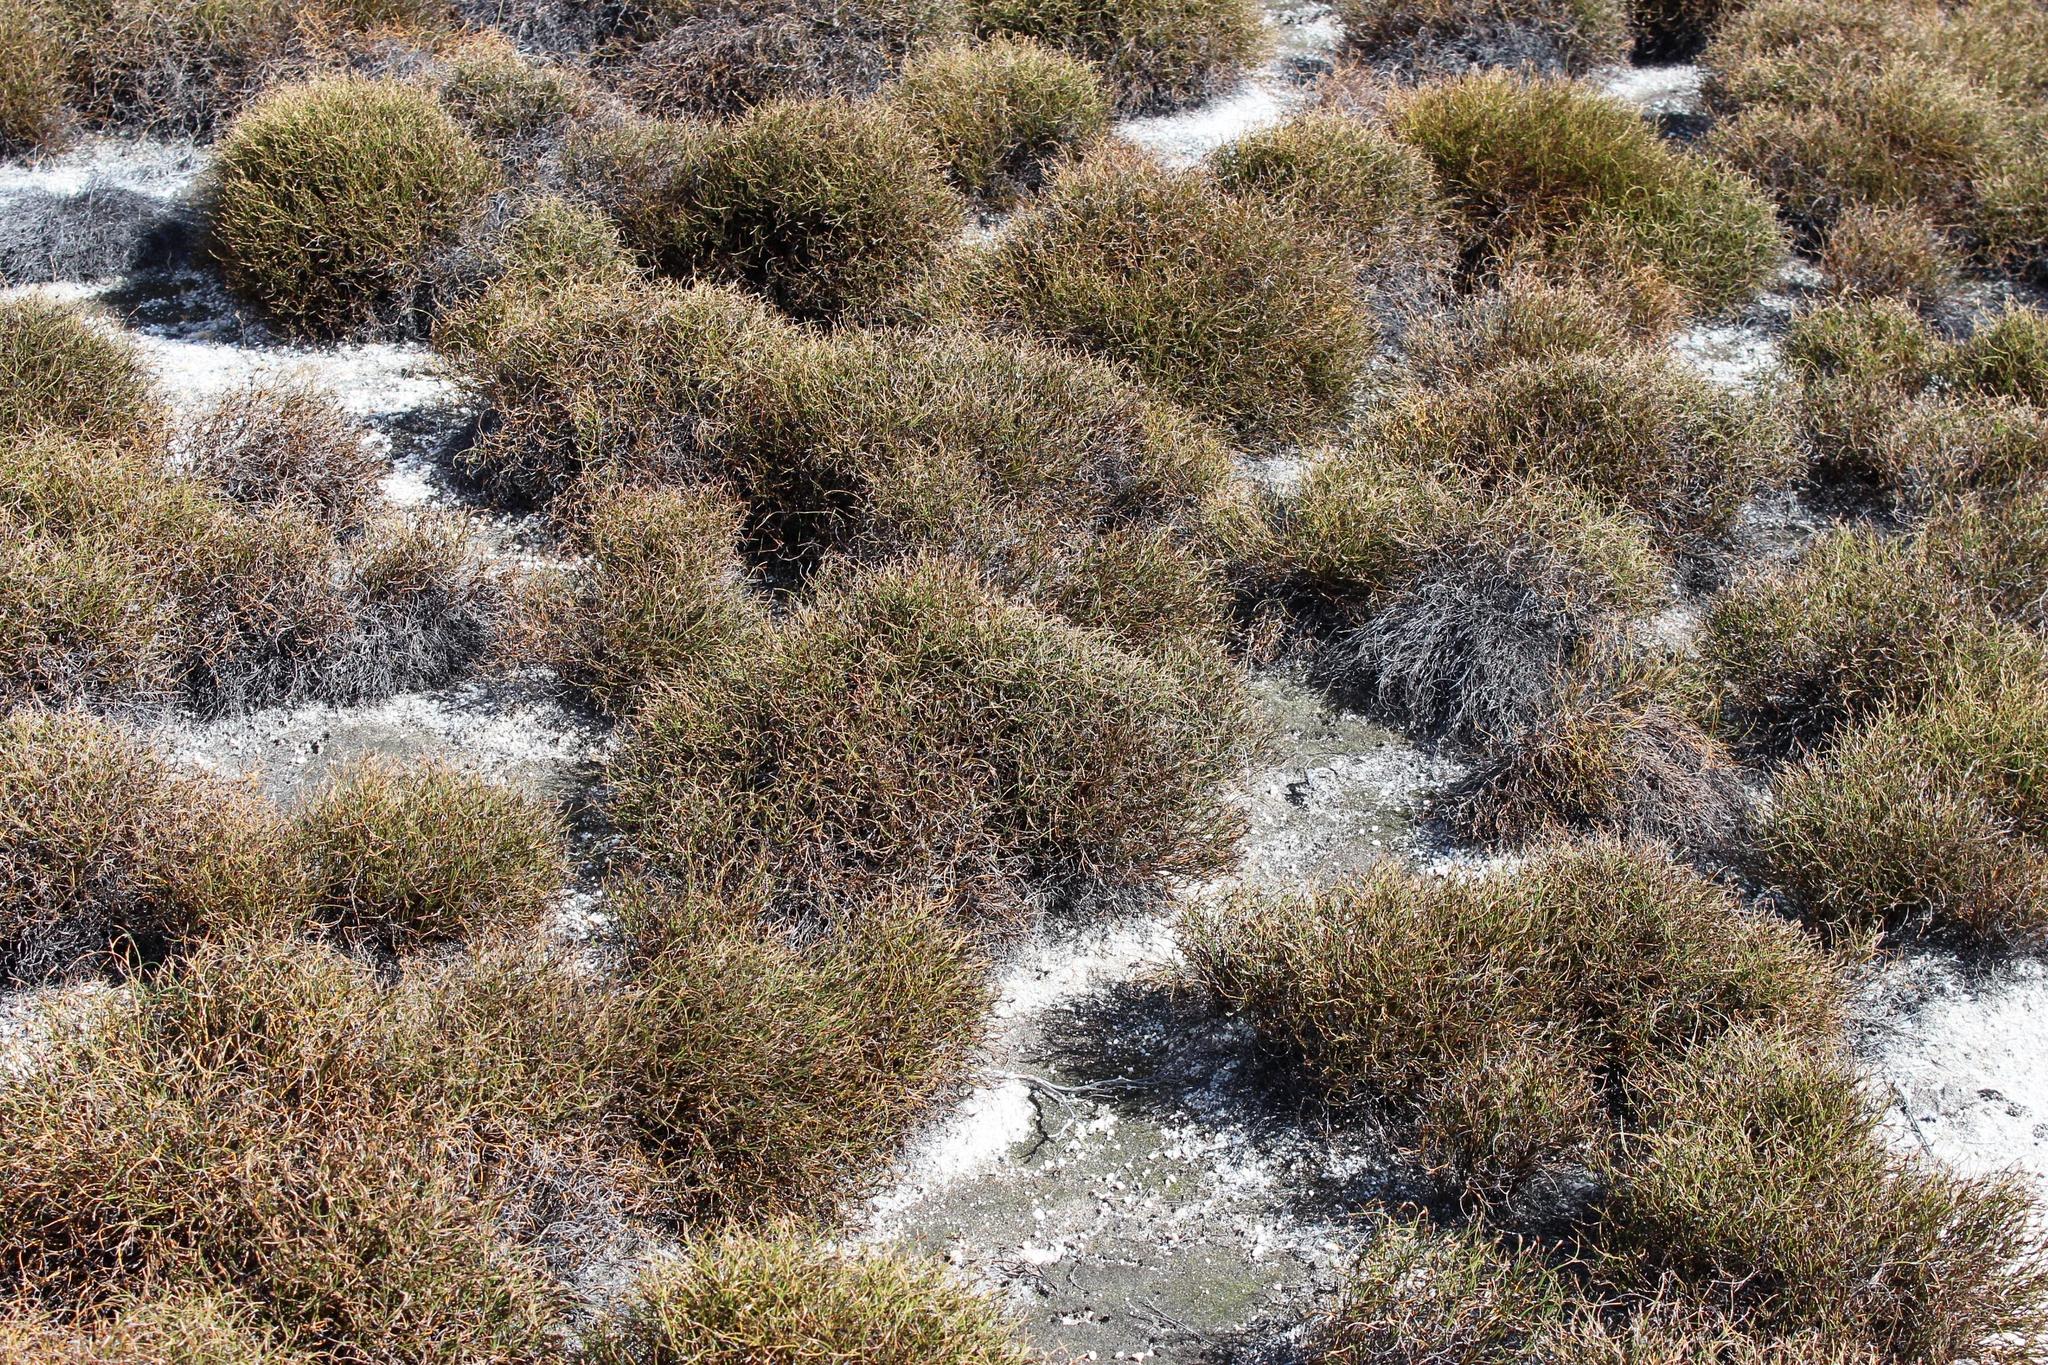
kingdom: Plantae
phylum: Tracheophyta
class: Liliopsida
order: Poales
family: Restionaceae
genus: Restio
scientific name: Restio nanus
